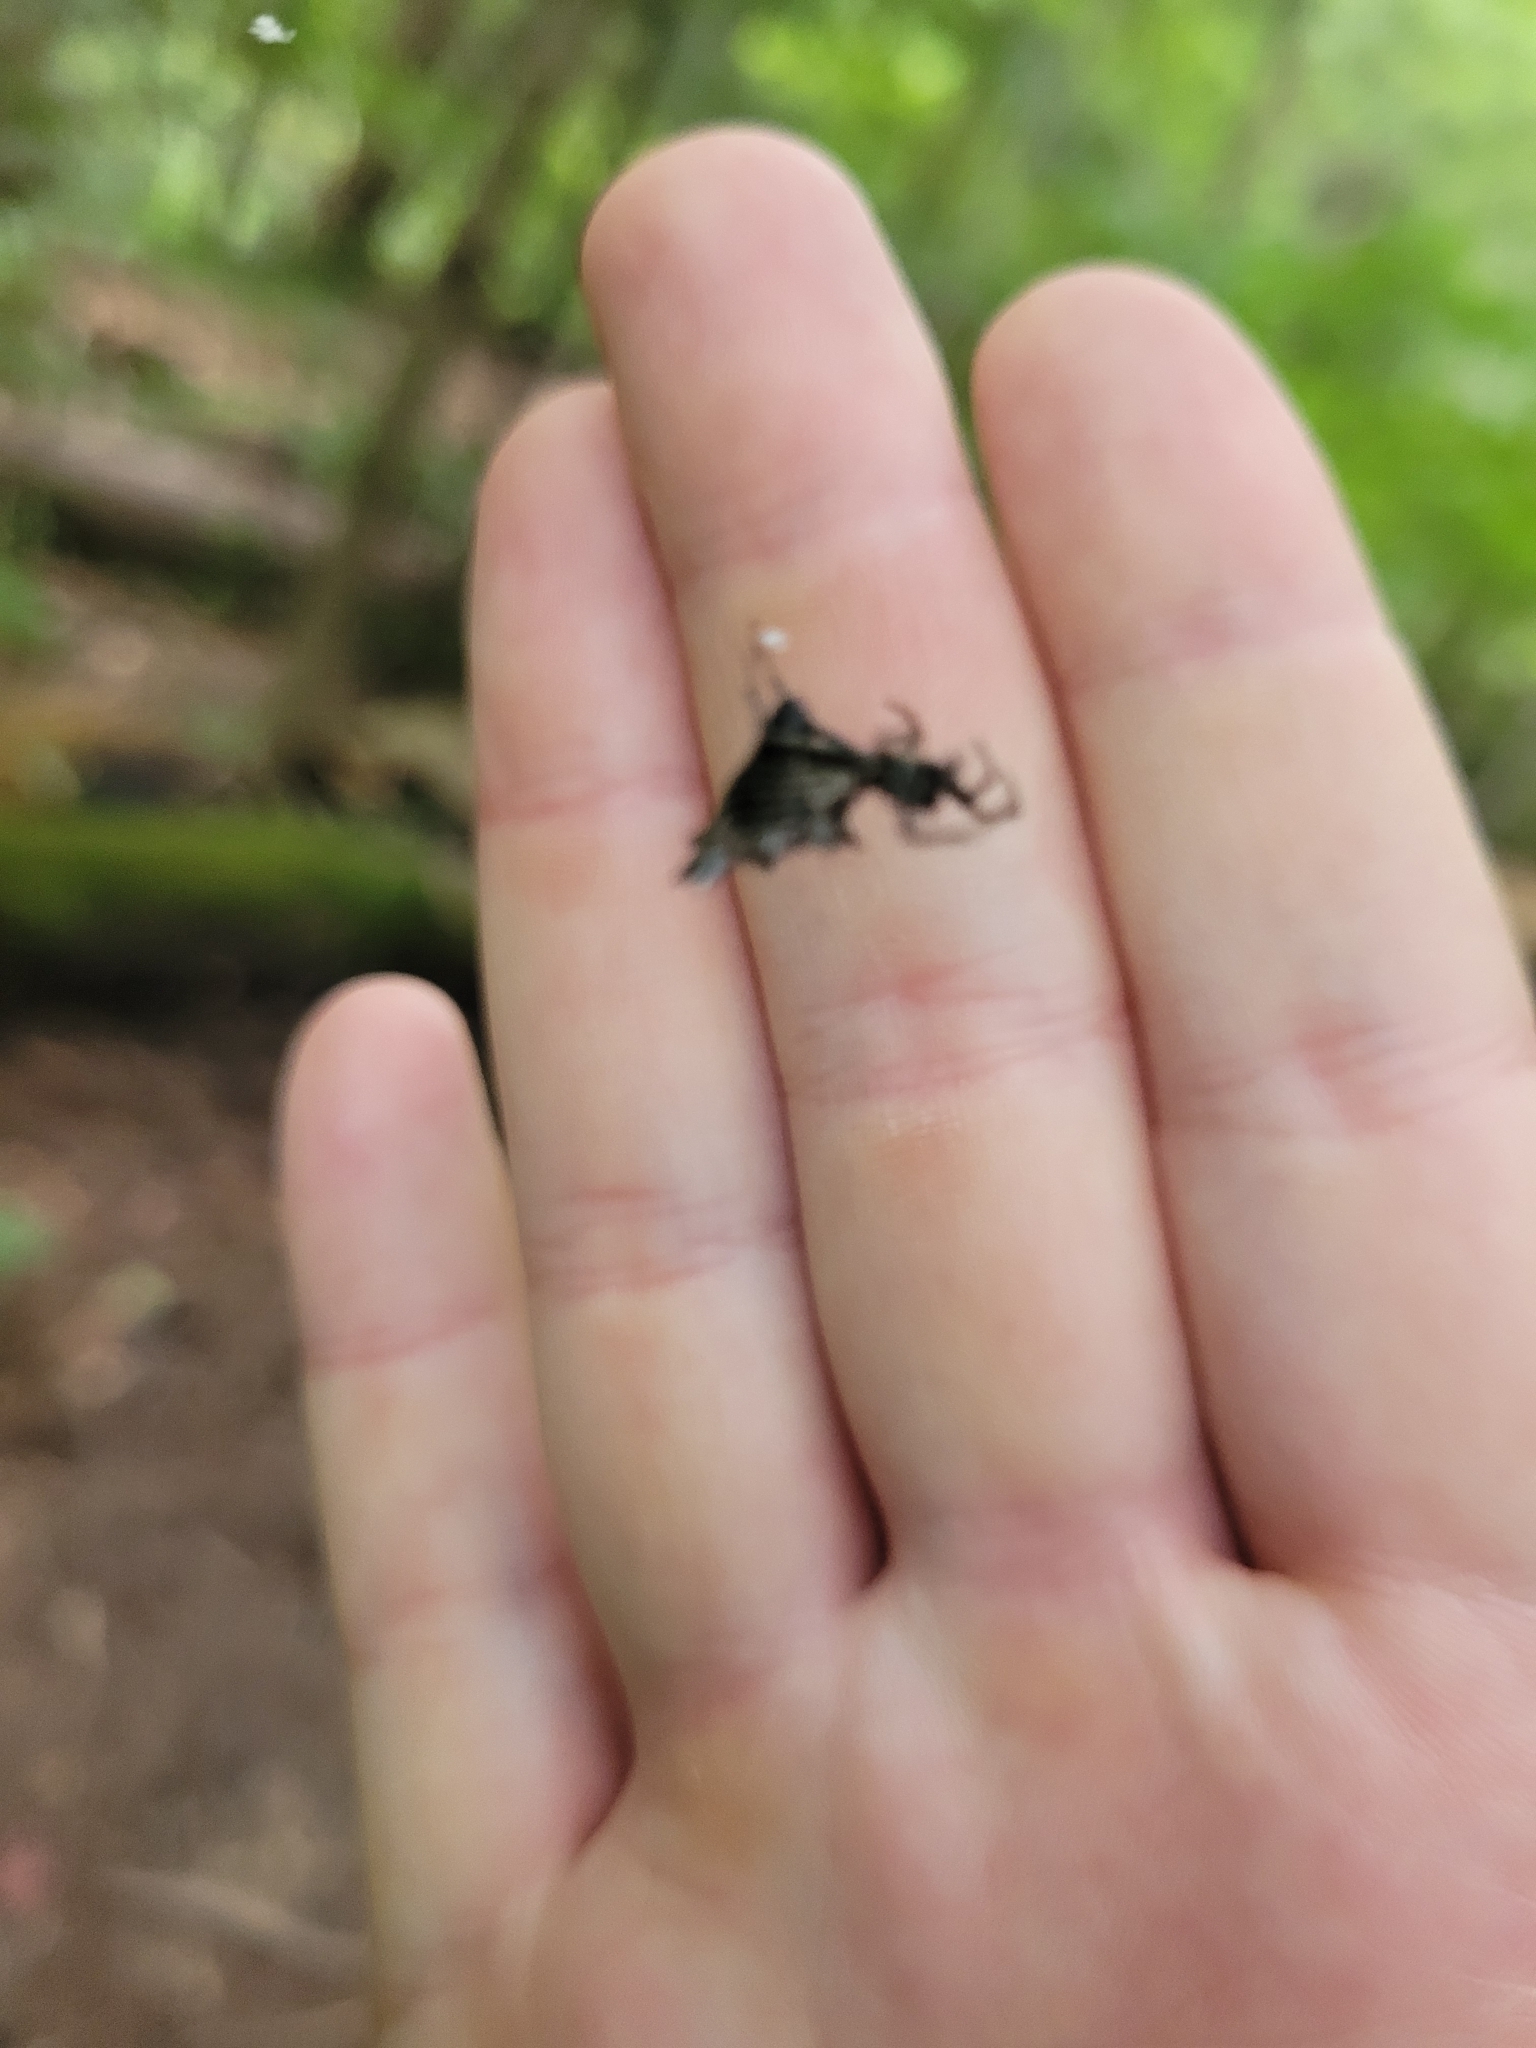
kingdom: Animalia
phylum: Arthropoda
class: Arachnida
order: Araneae
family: Araneidae
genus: Micrathena
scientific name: Micrathena gracilis
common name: Orb weavers
